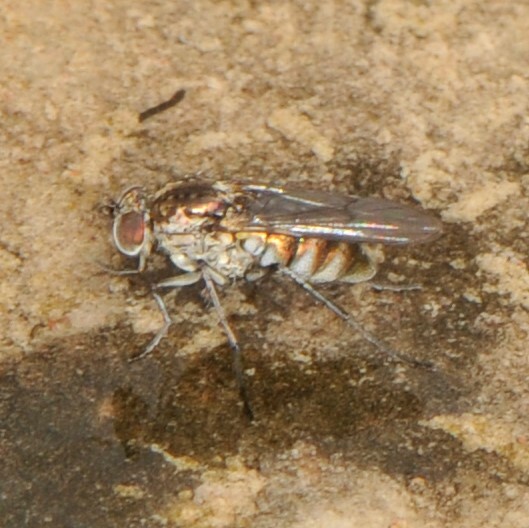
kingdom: Animalia
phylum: Arthropoda
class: Insecta
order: Diptera
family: Dolichopodidae
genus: Tachytrechus
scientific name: Tachytrechus
